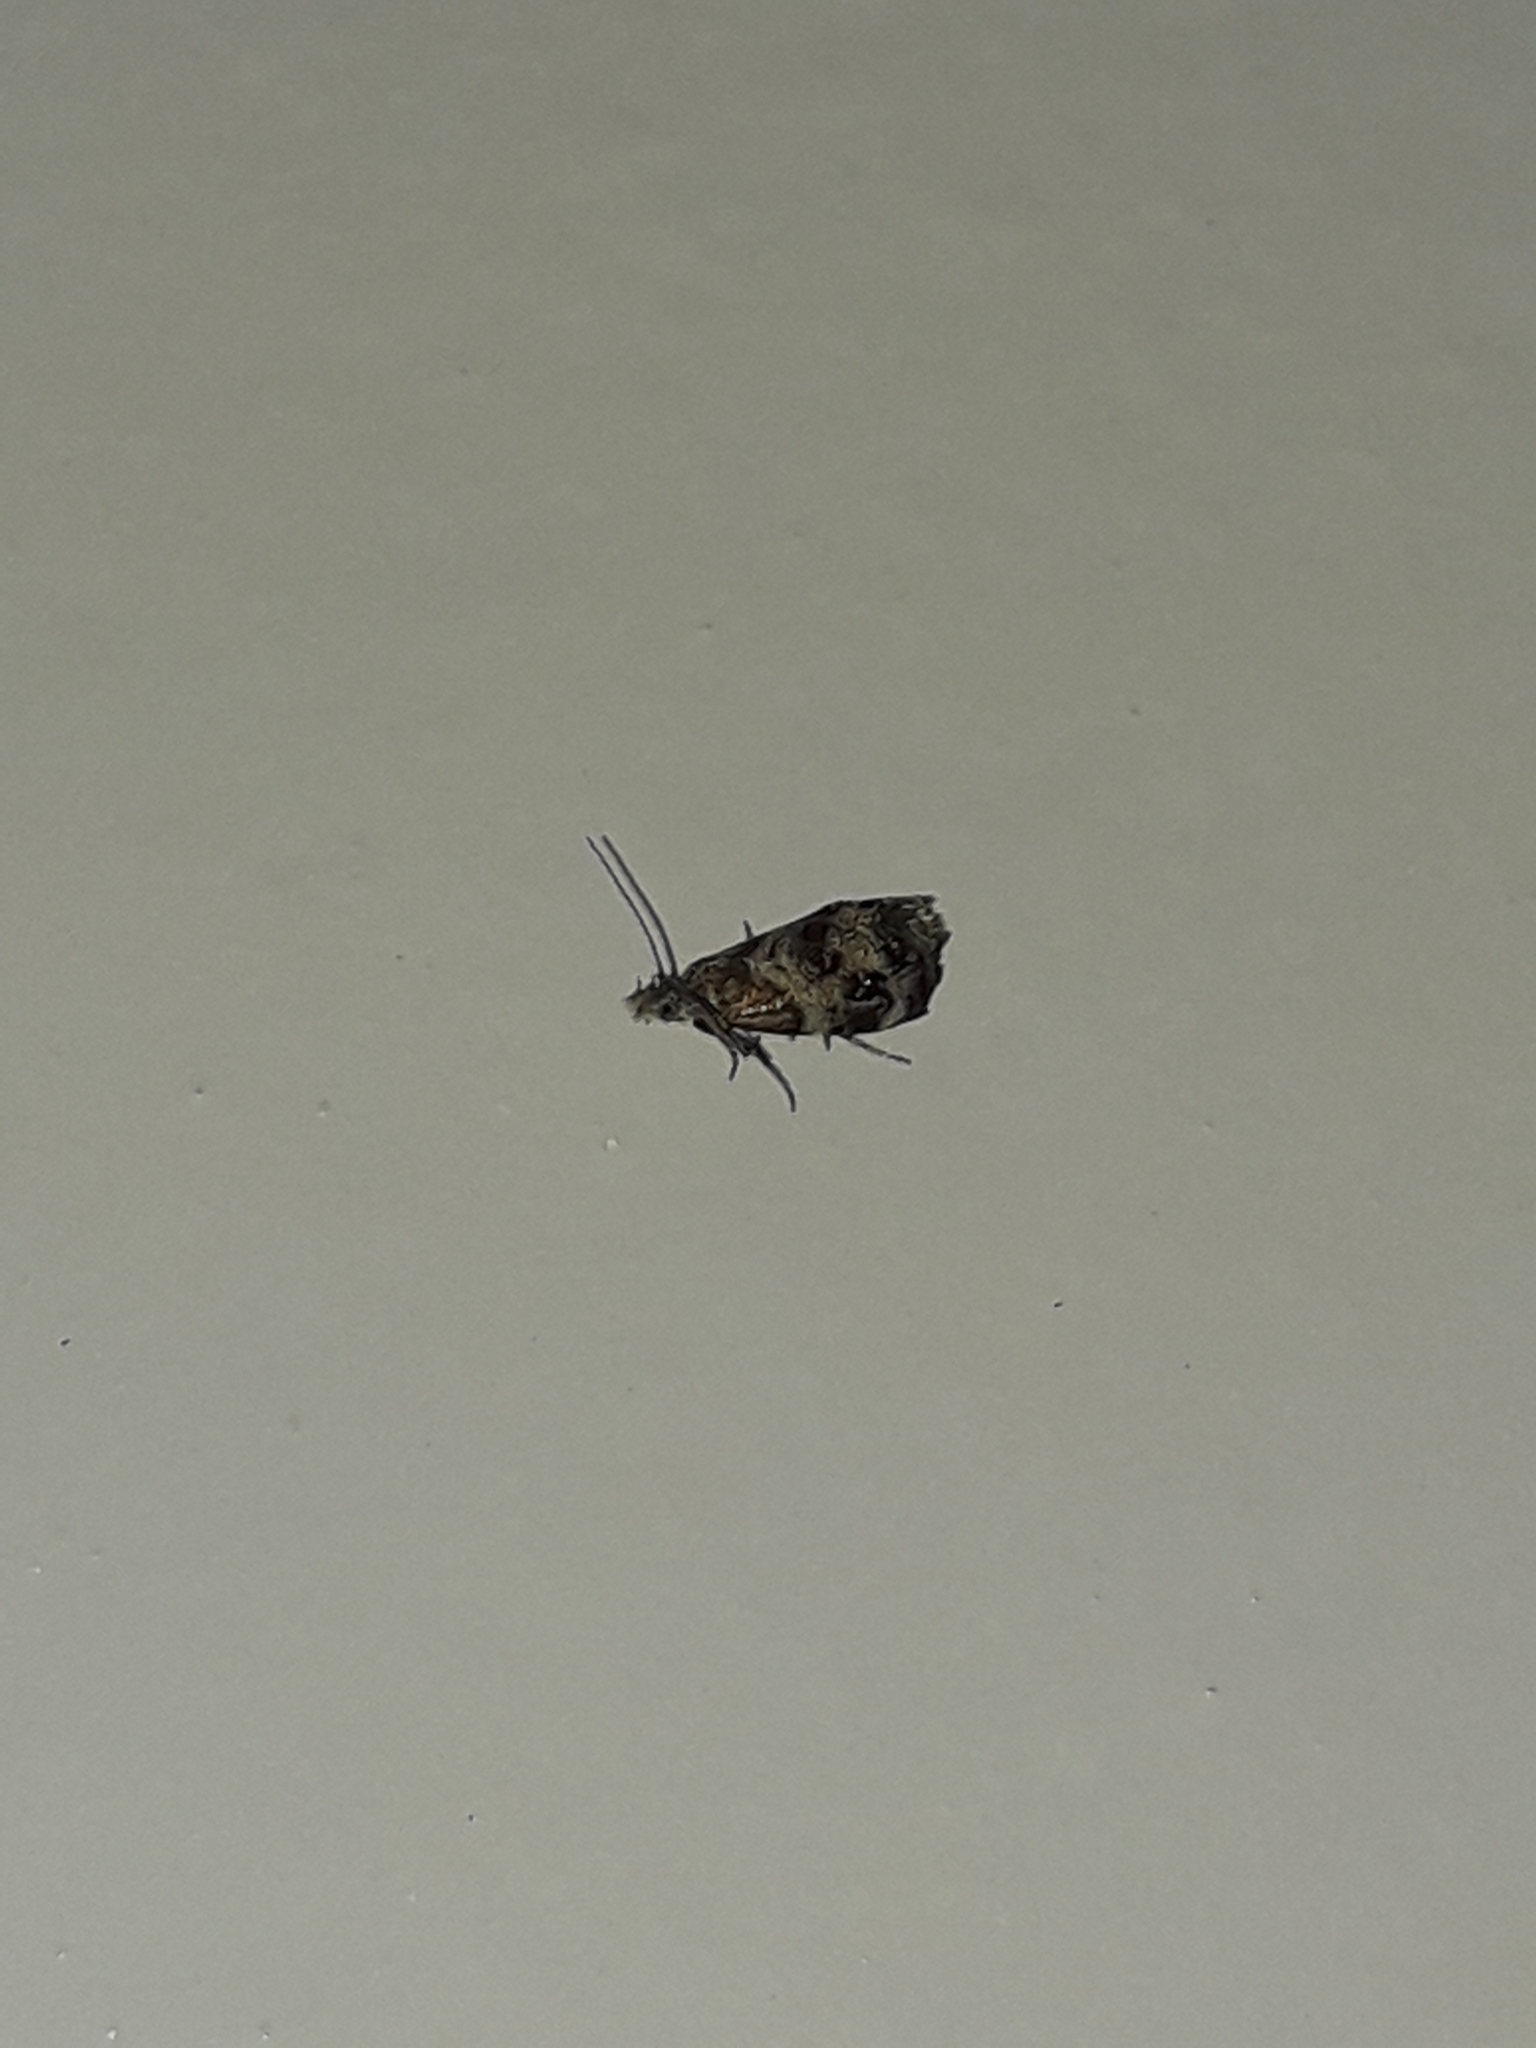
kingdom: Animalia
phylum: Arthropoda
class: Insecta
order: Lepidoptera
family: Choreutidae
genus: Tebenna
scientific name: Tebenna micalis
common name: Vagrant twitcher
